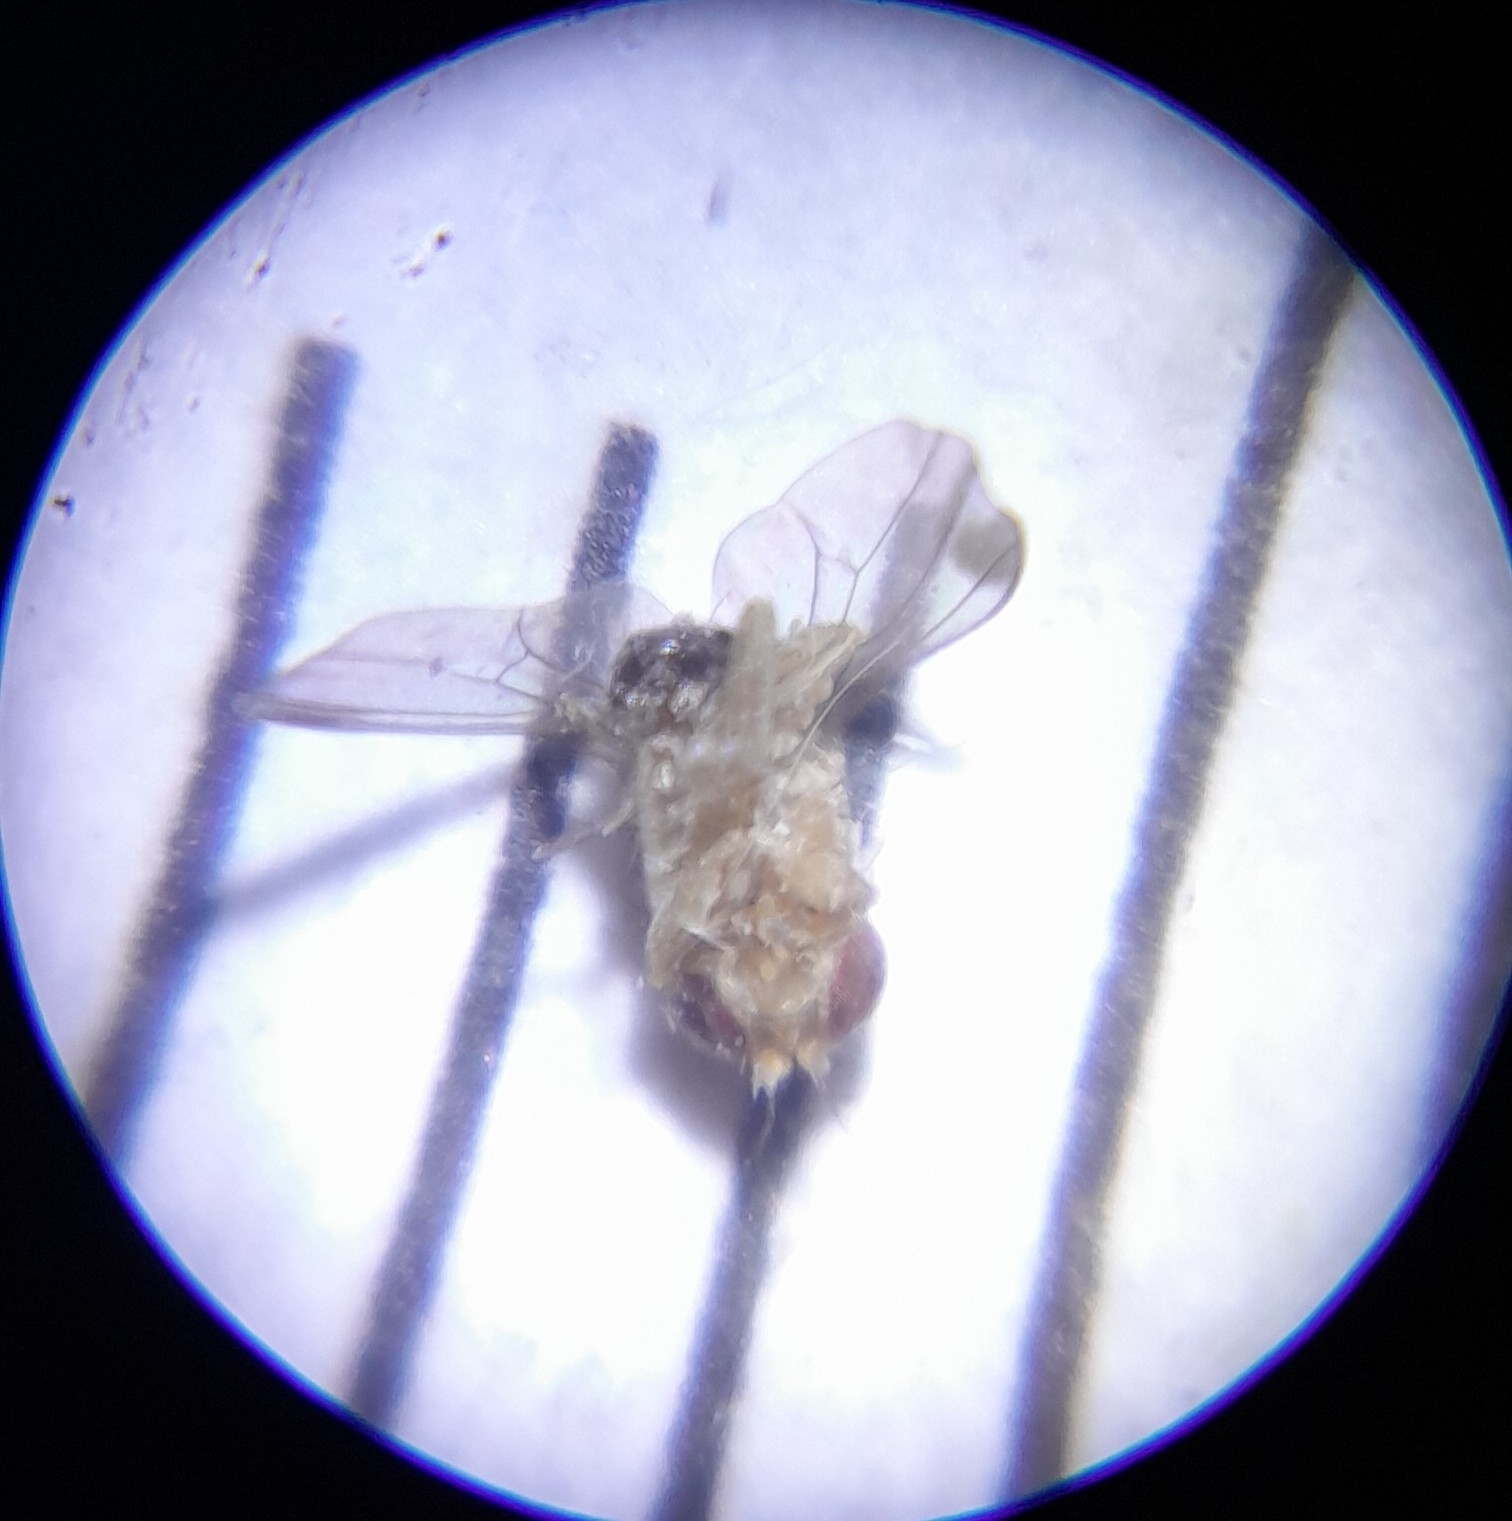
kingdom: Animalia
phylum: Arthropoda
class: Insecta
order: Diptera
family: Drosophilidae
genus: Drosophila
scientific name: Drosophila suzukii
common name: Spotted-wing drosophila
